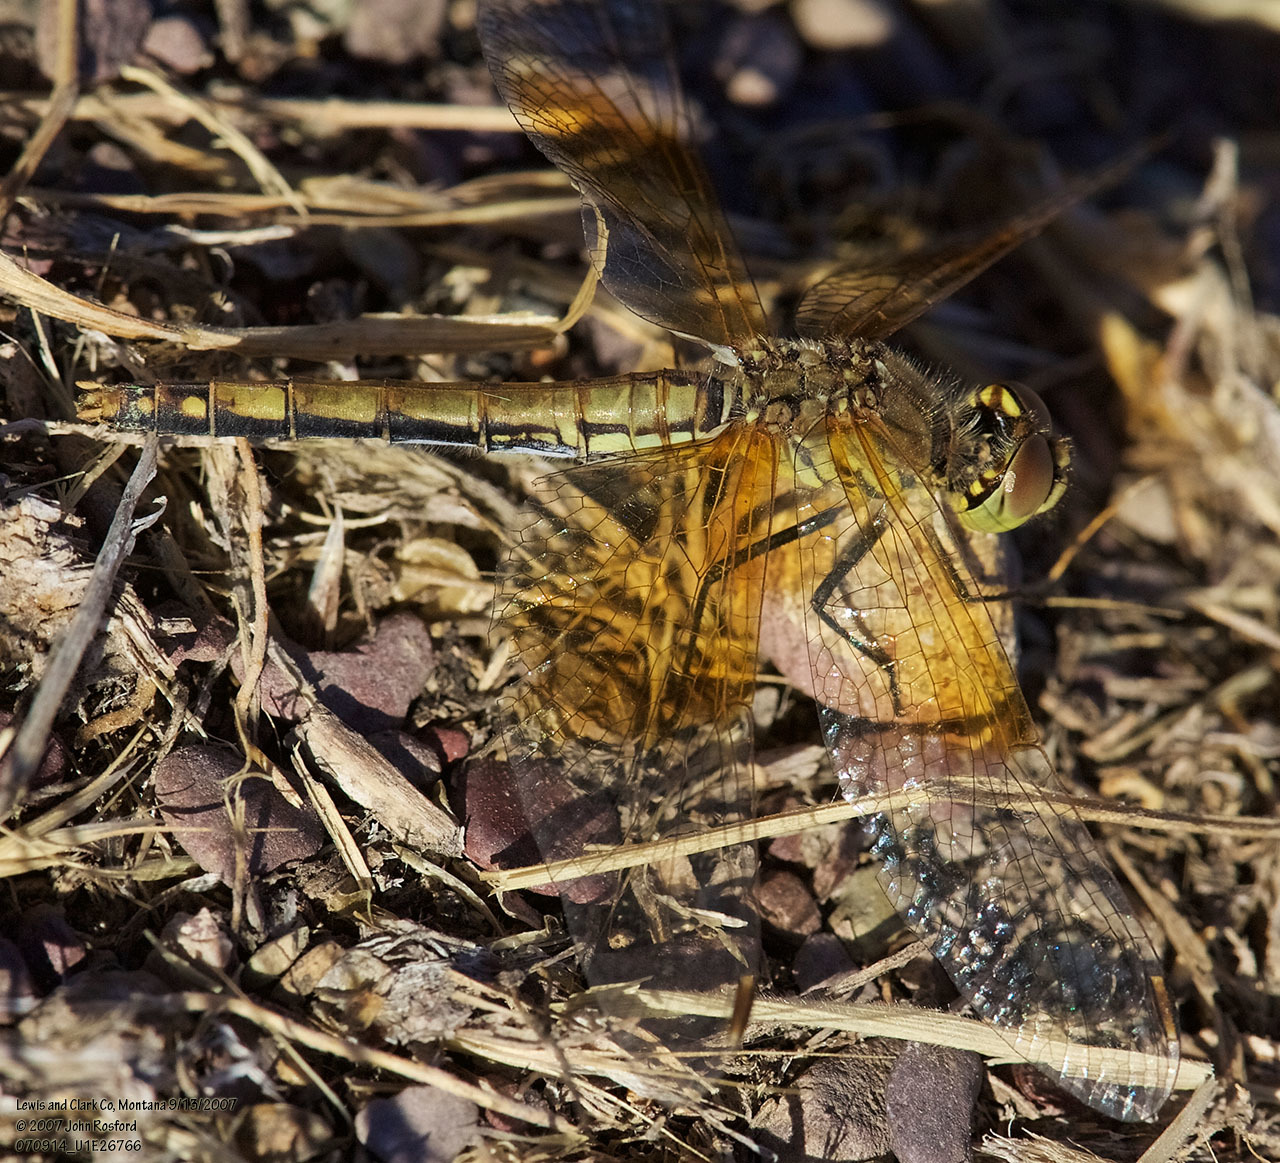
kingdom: Animalia
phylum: Arthropoda
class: Insecta
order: Odonata
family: Libellulidae
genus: Sympetrum
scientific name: Sympetrum semicinctum
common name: Band-winged meadowhawk
